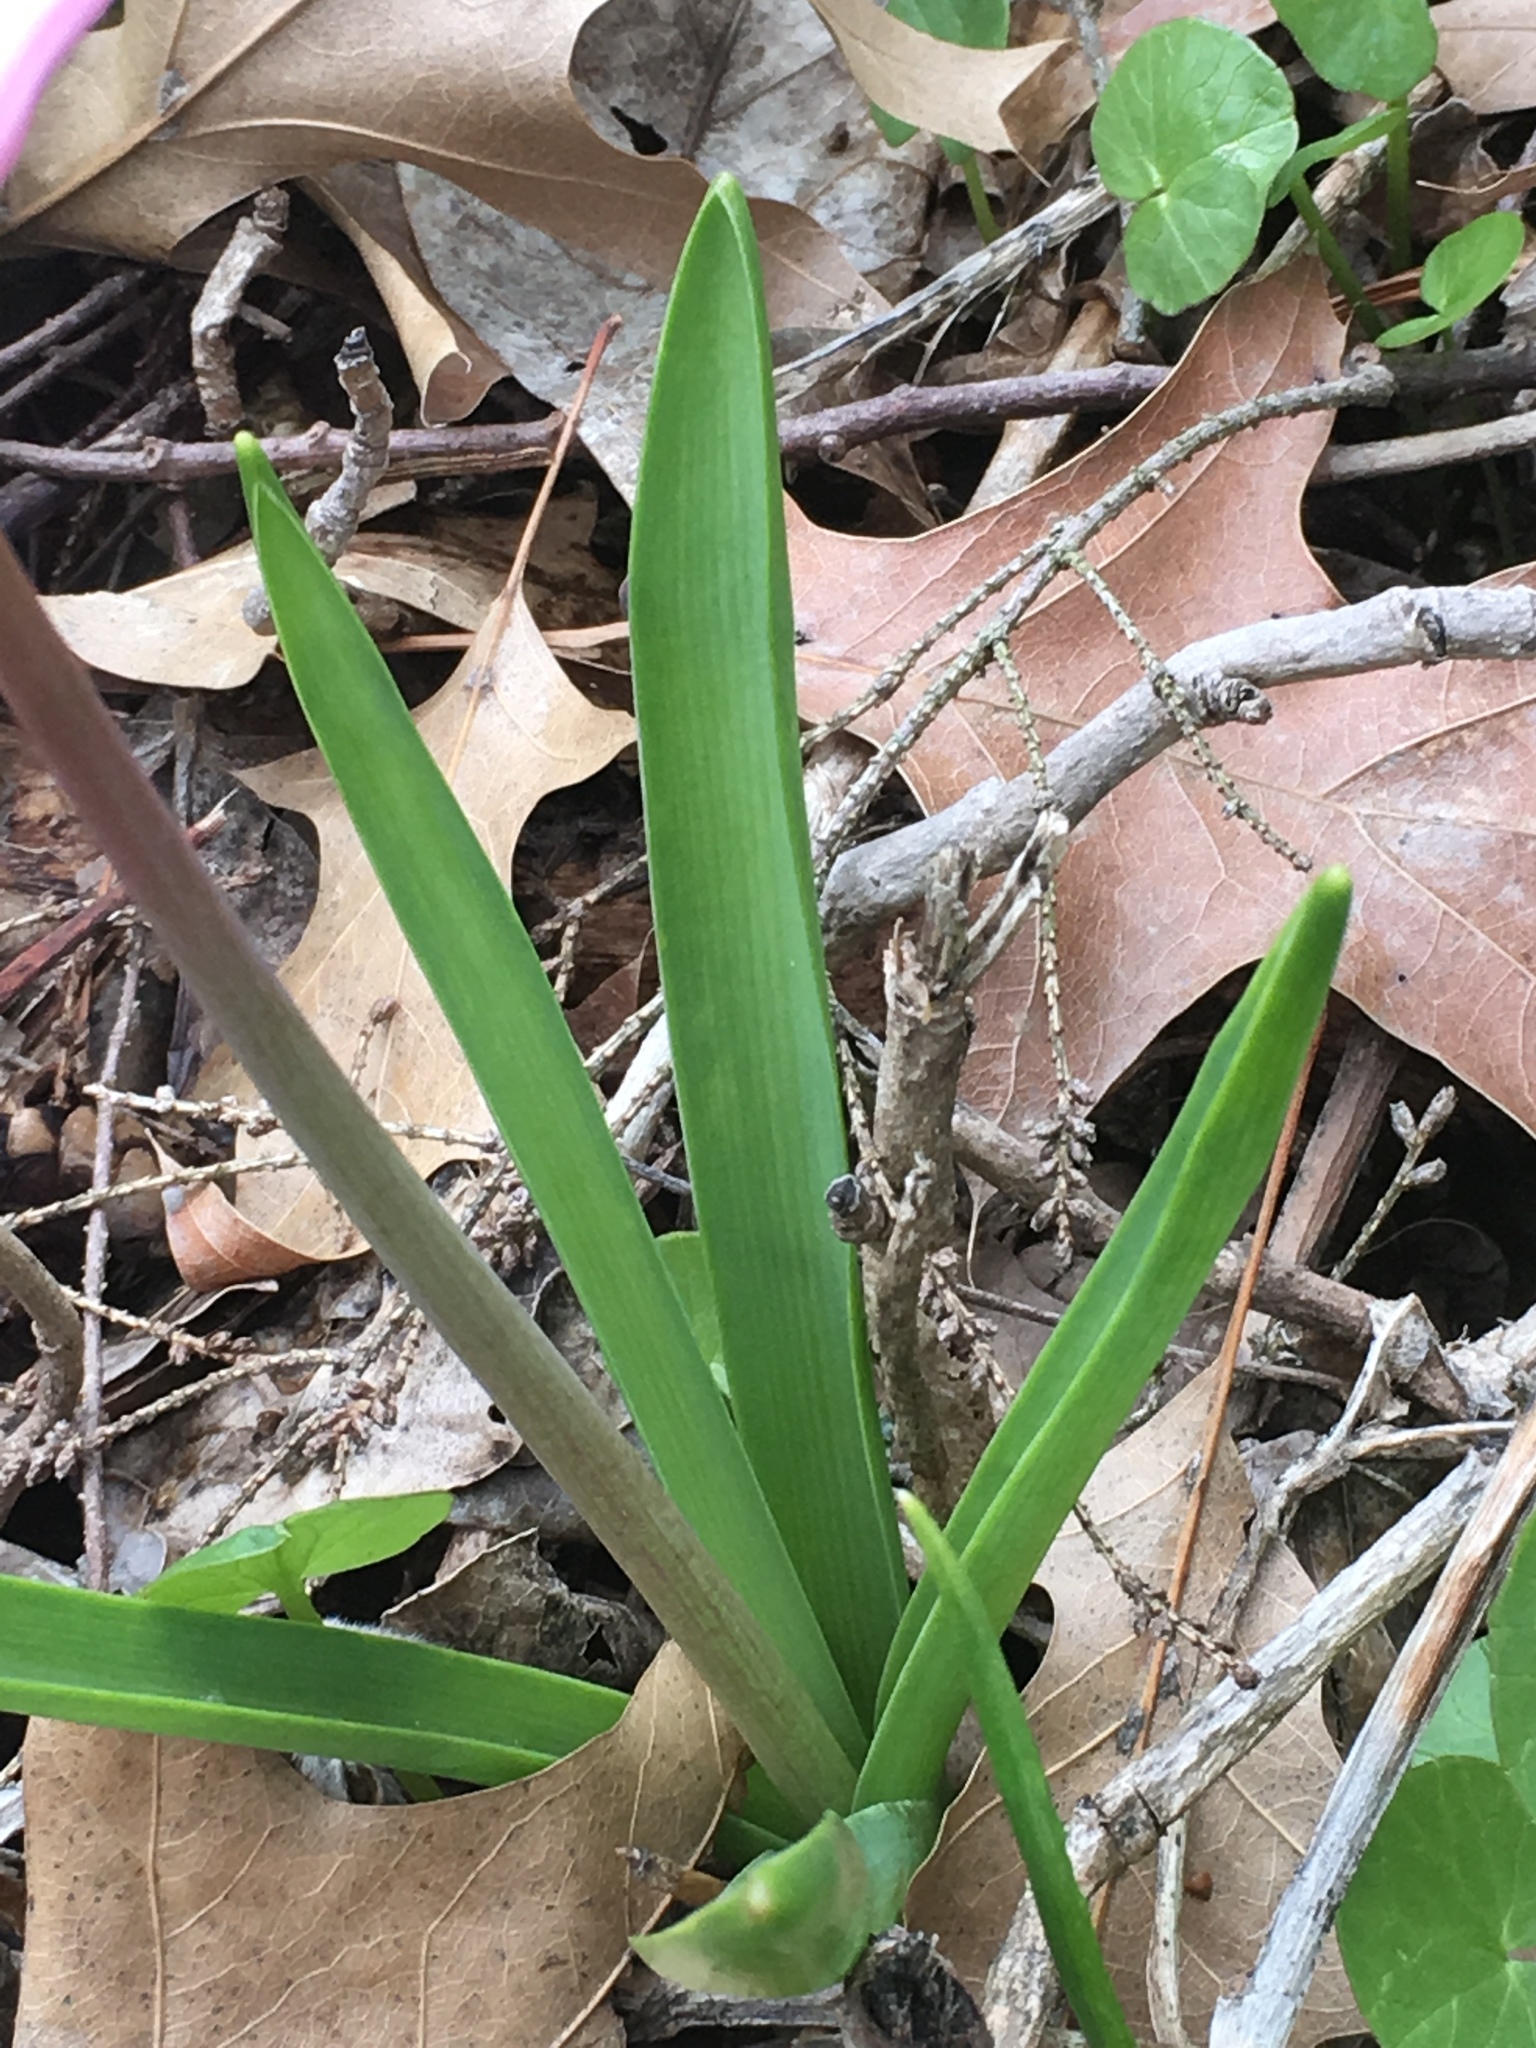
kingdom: Plantae
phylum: Tracheophyta
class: Liliopsida
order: Asparagales
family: Asparagaceae
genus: Hyacinthus
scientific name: Hyacinthus orientalis
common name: Hyacinth
